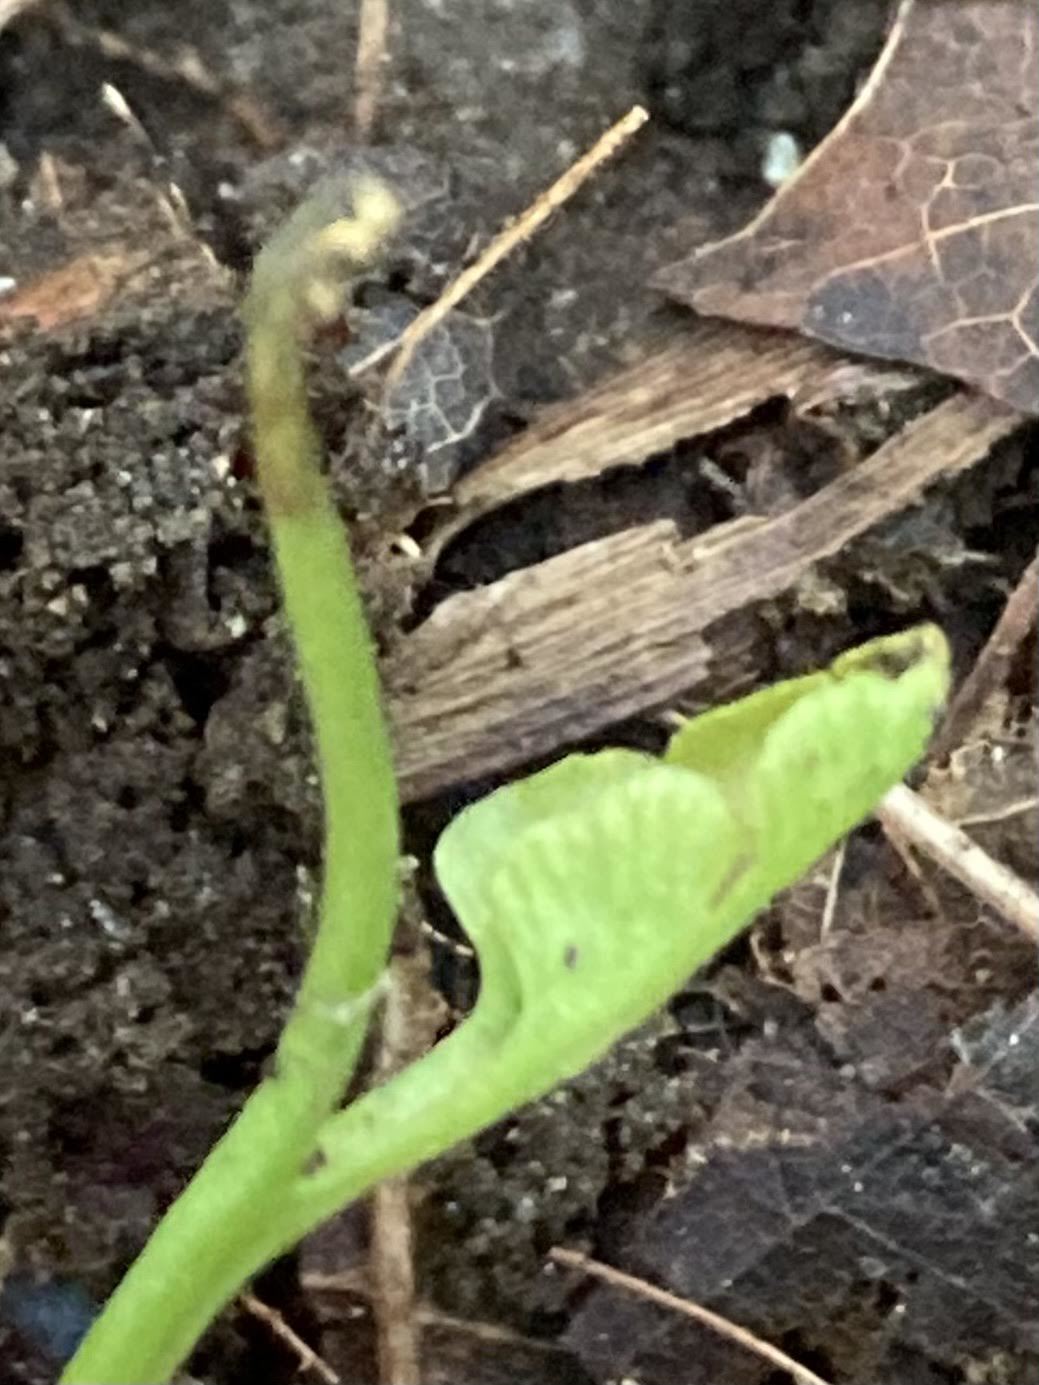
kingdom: Plantae
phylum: Tracheophyta
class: Polypodiopsida
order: Ophioglossales
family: Ophioglossaceae
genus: Botrychium
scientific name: Botrychium tenebrosum
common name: Shade moonwort
